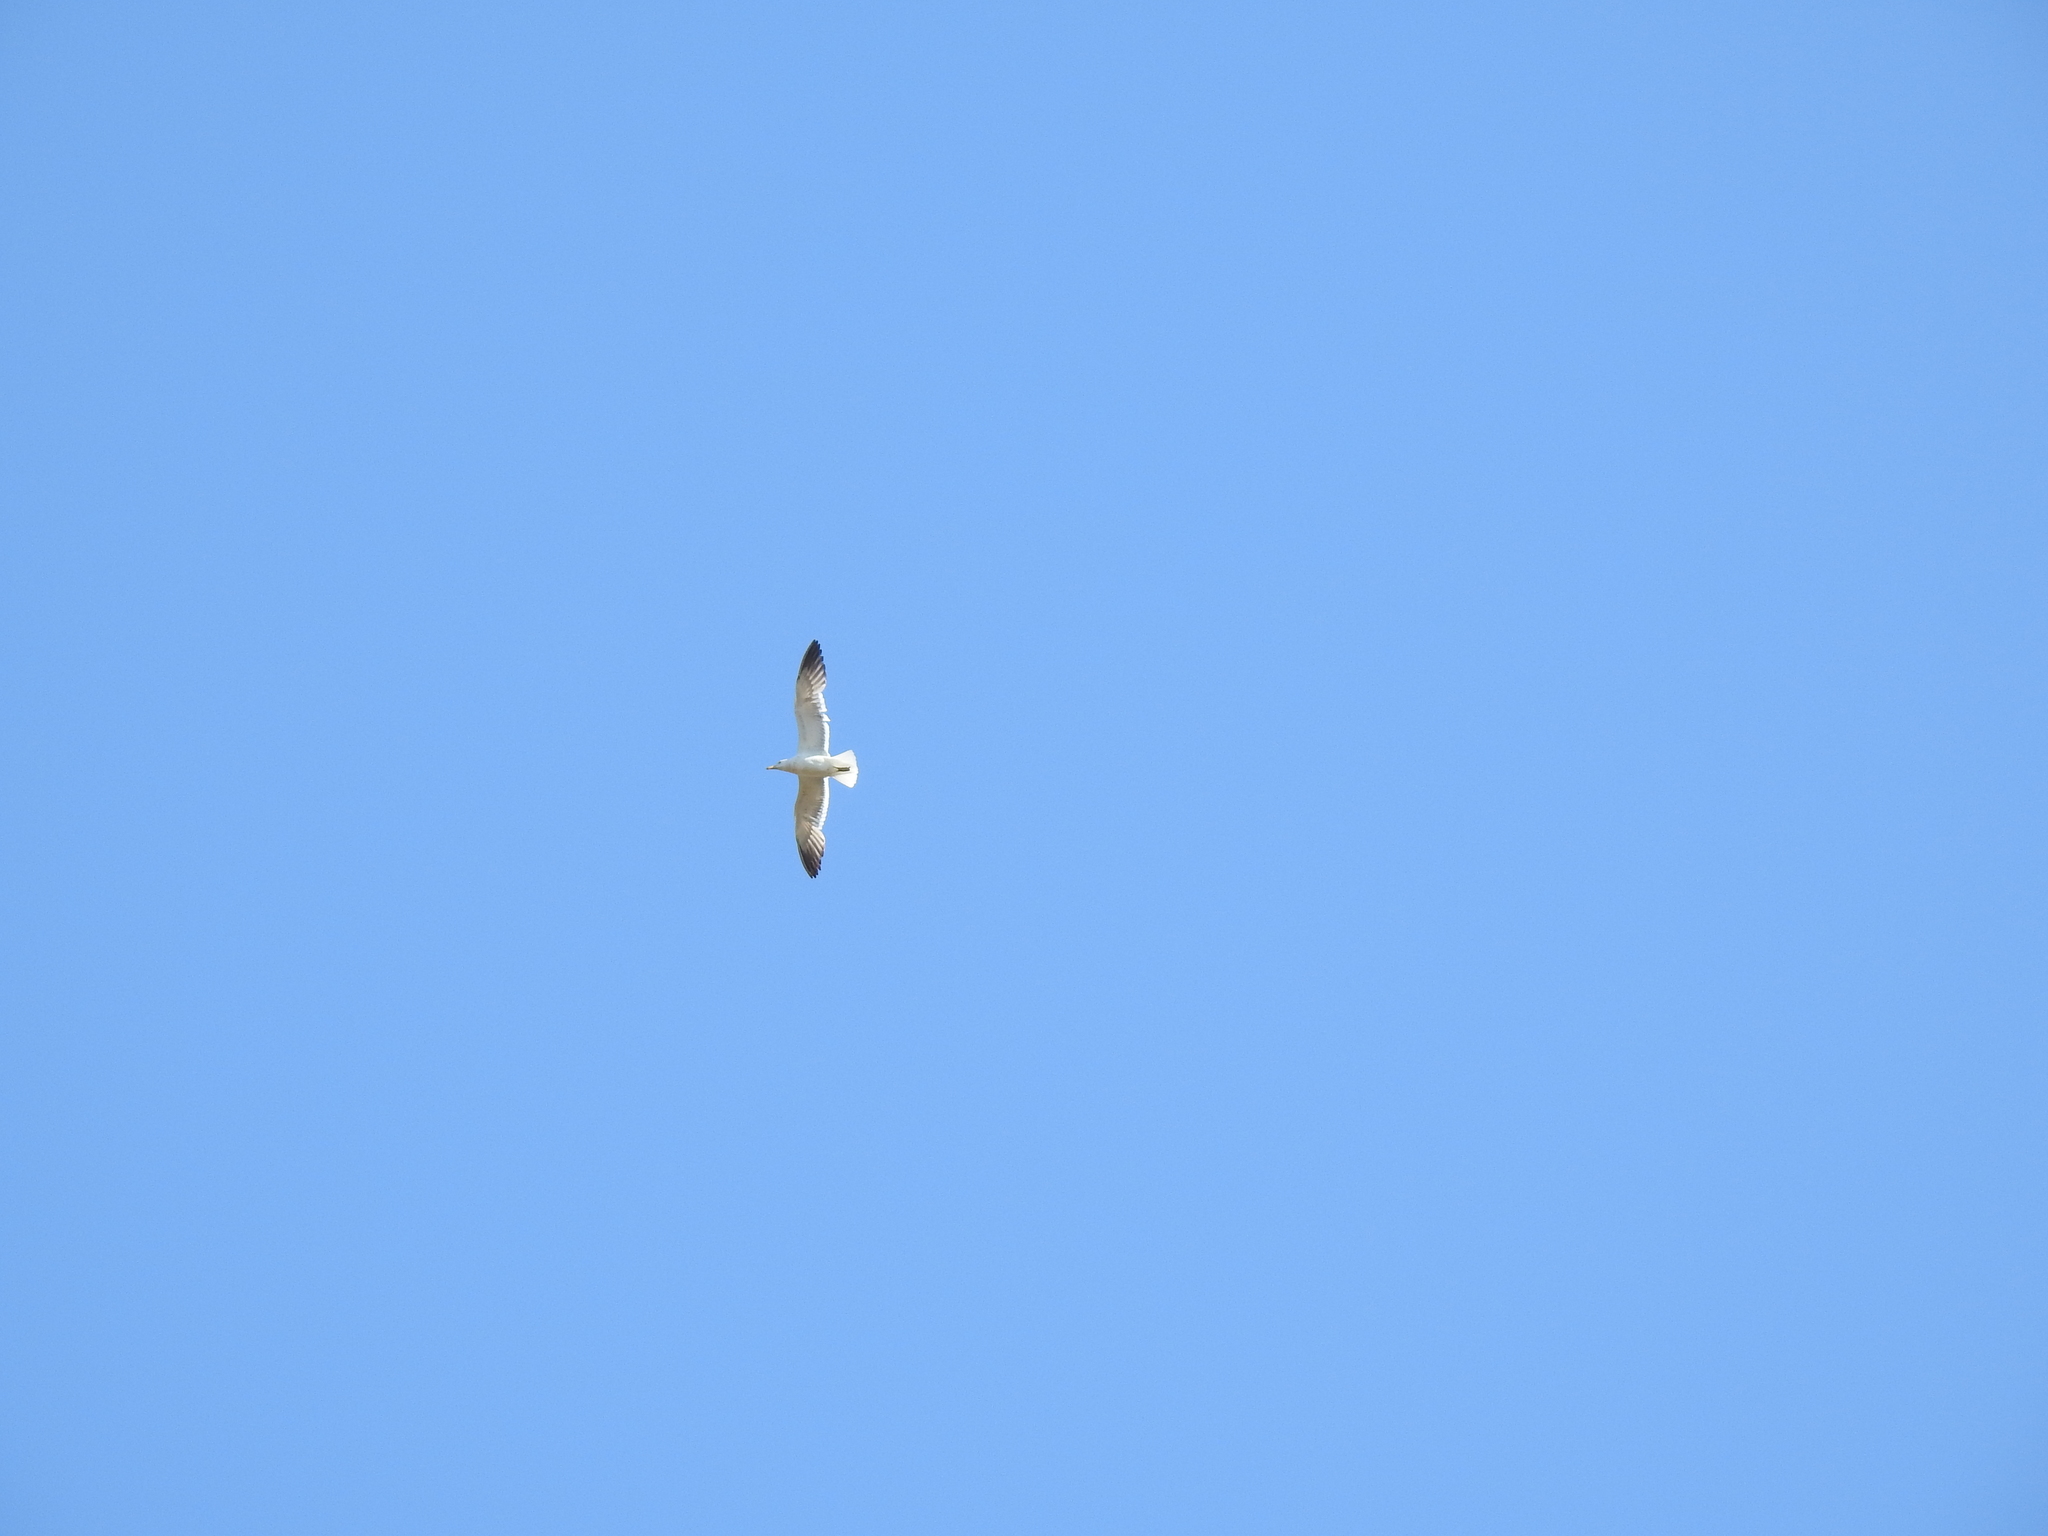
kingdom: Animalia
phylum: Chordata
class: Aves
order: Charadriiformes
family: Laridae
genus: Larus
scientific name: Larus fuscus
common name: Lesser black-backed gull
